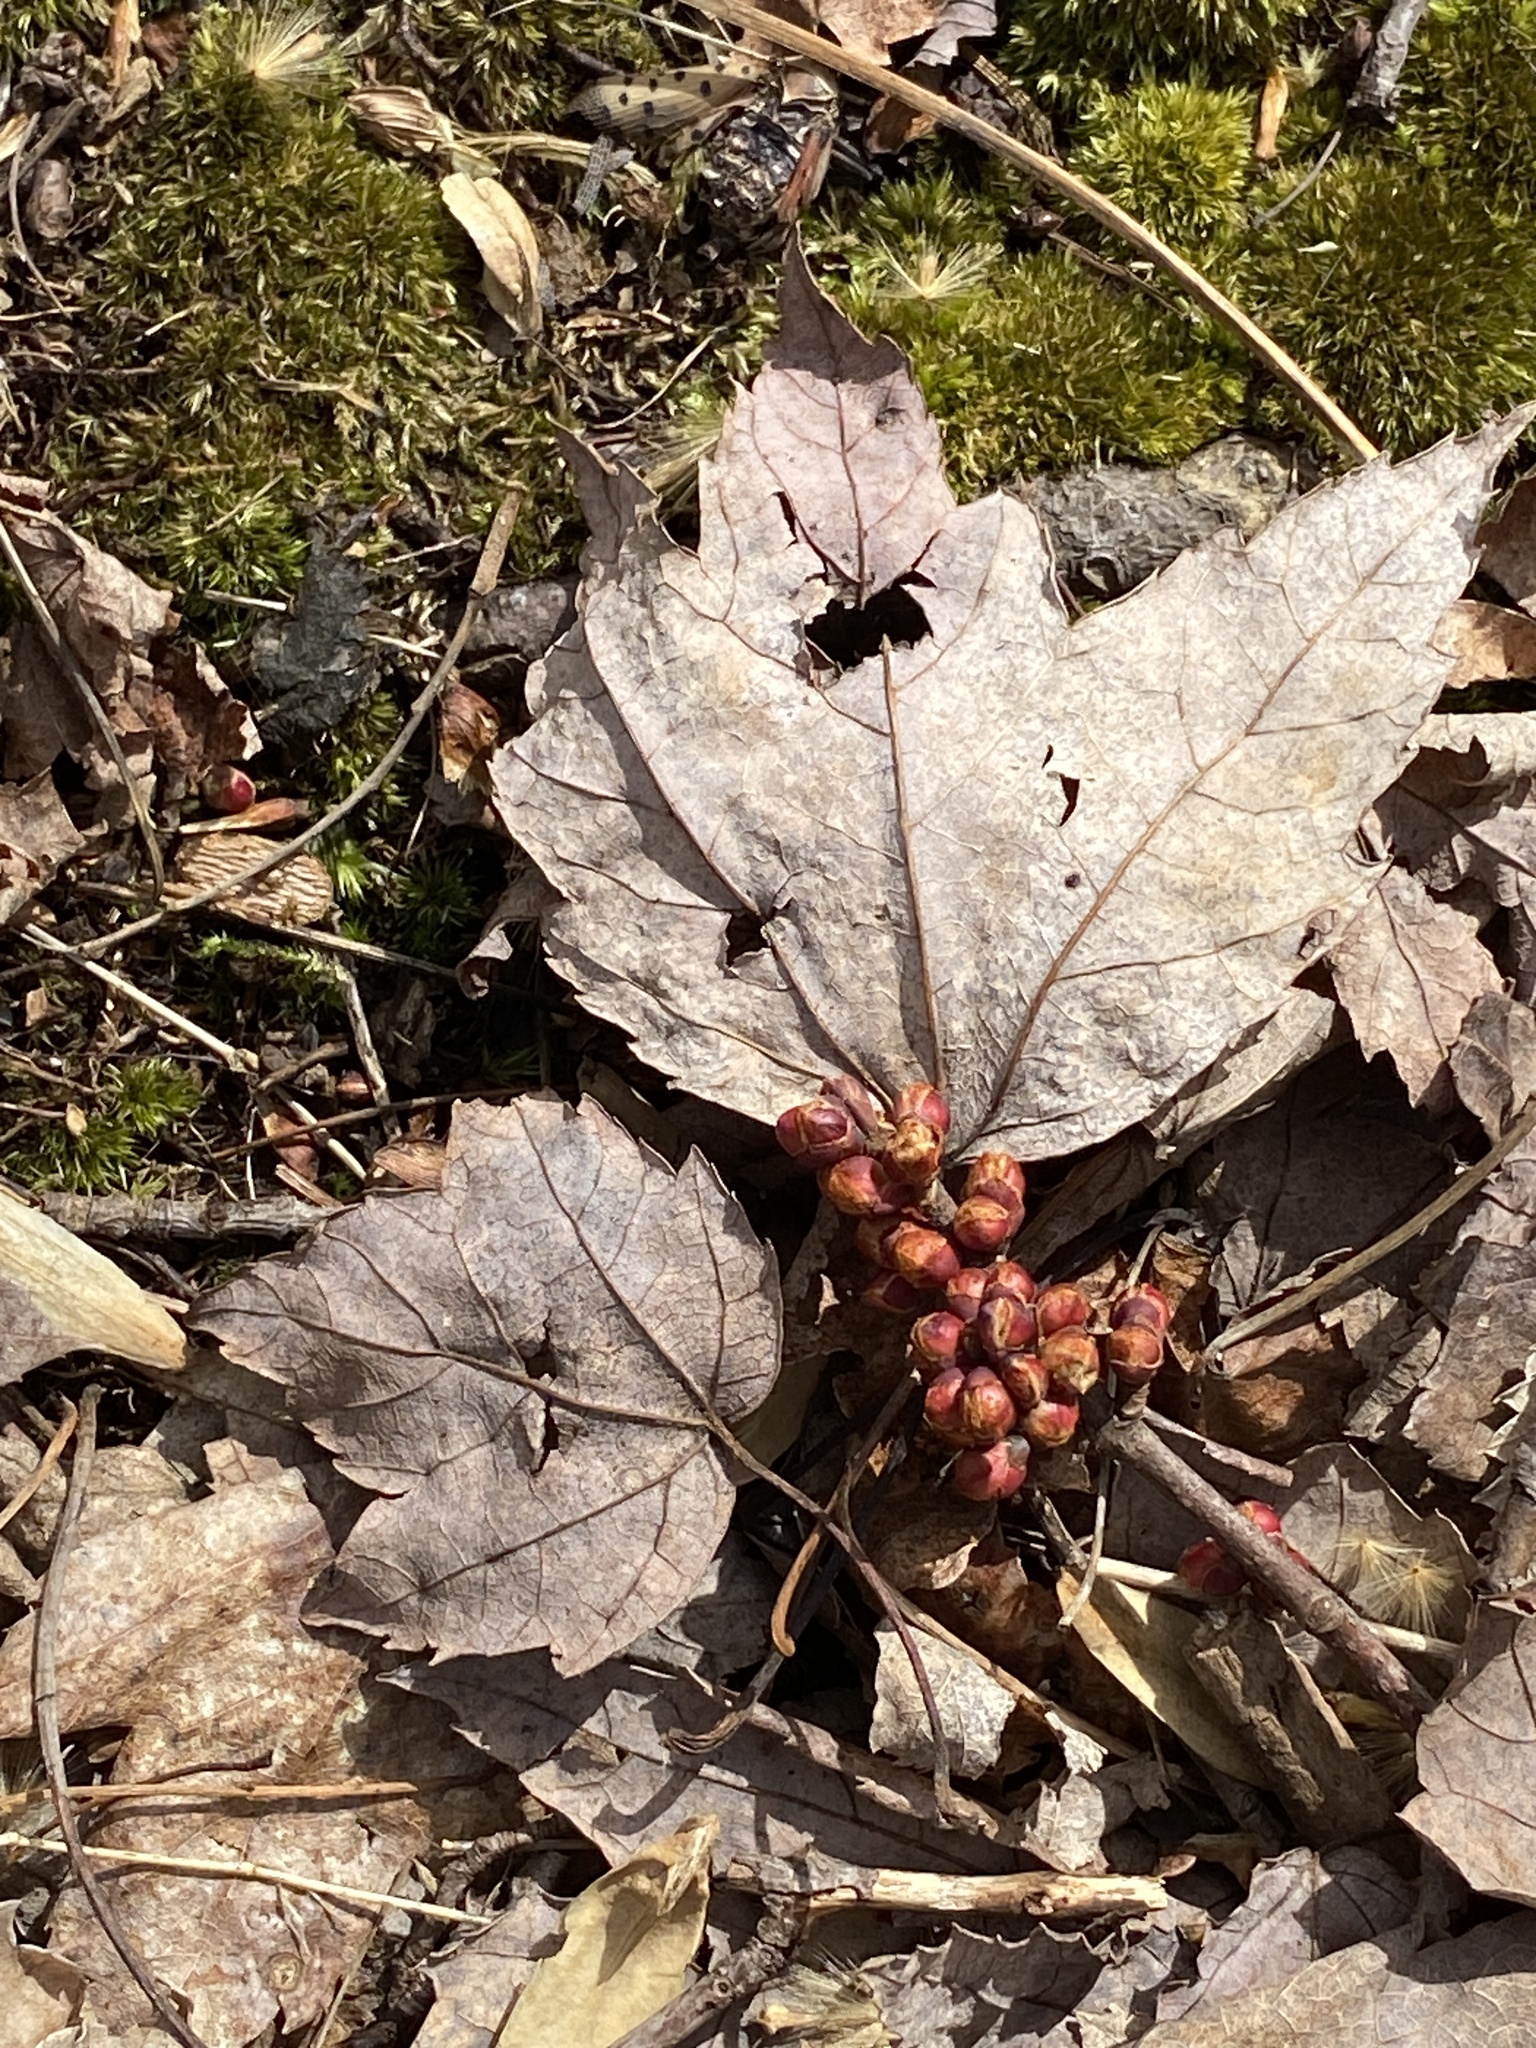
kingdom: Plantae
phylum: Tracheophyta
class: Magnoliopsida
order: Sapindales
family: Sapindaceae
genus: Acer
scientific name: Acer rubrum
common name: Red maple
